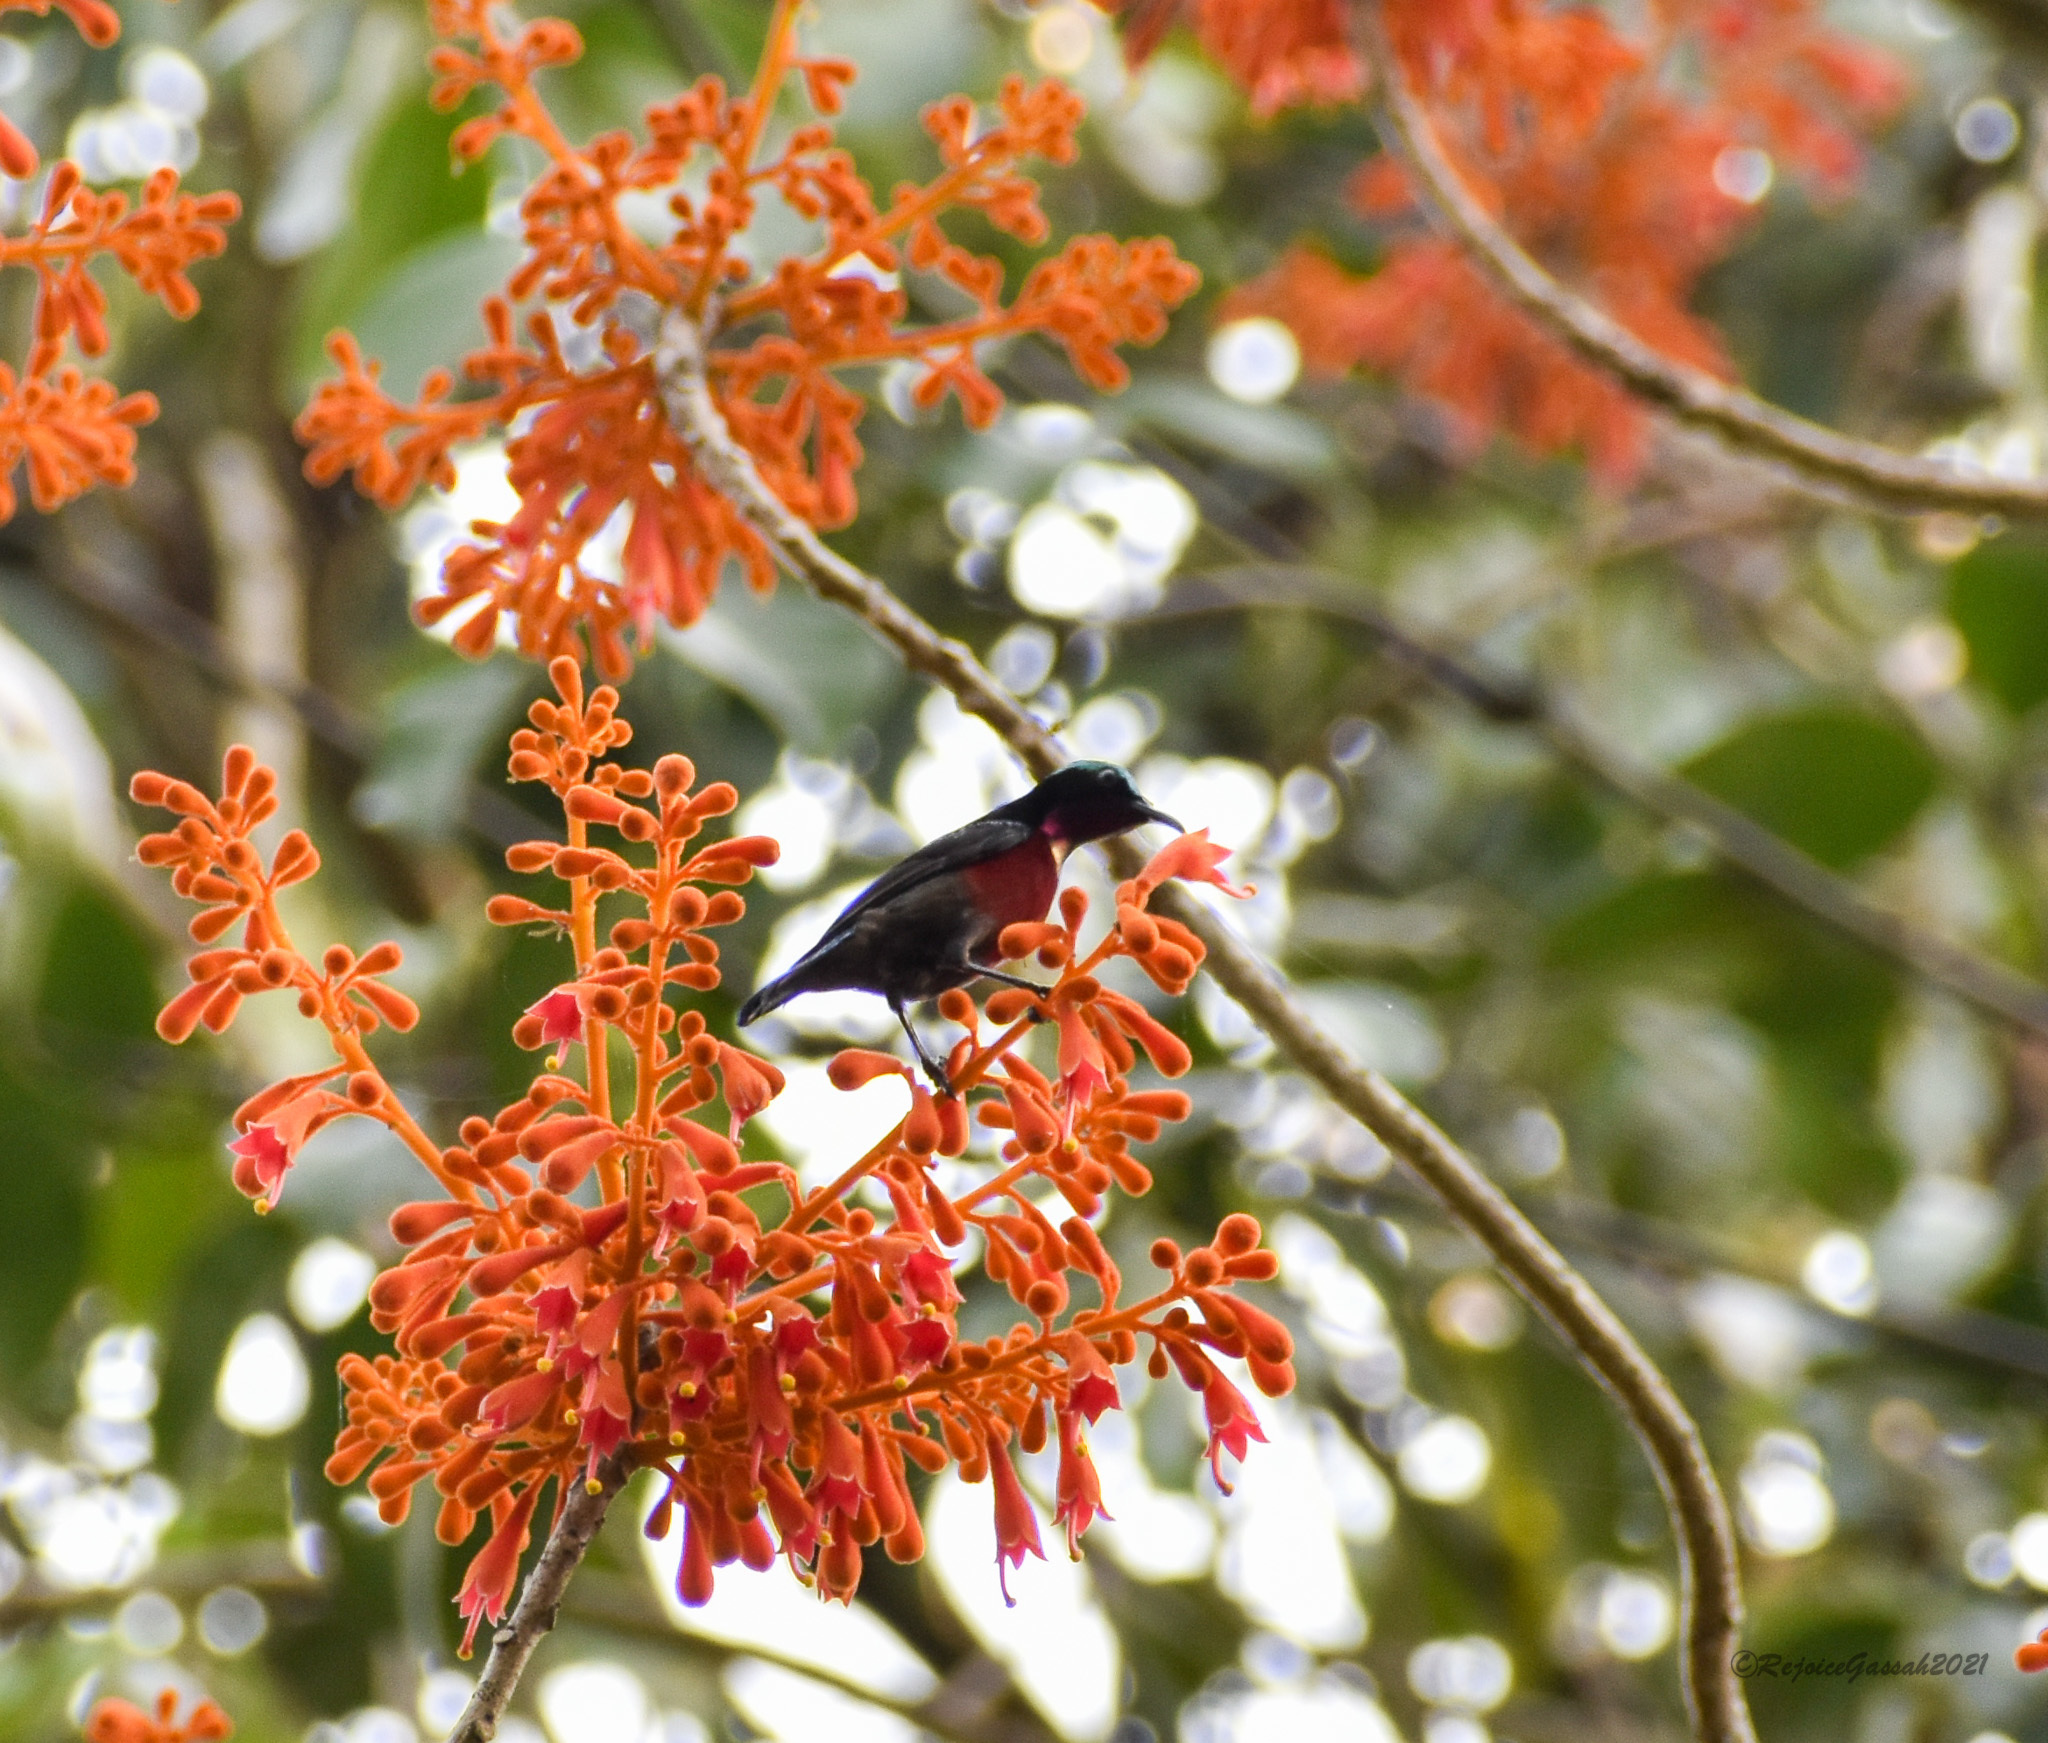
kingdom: Animalia
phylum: Chordata
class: Aves
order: Passeriformes
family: Nectariniidae
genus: Leptocoma
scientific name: Leptocoma brasiliana
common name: Van hasselt's sunbird
